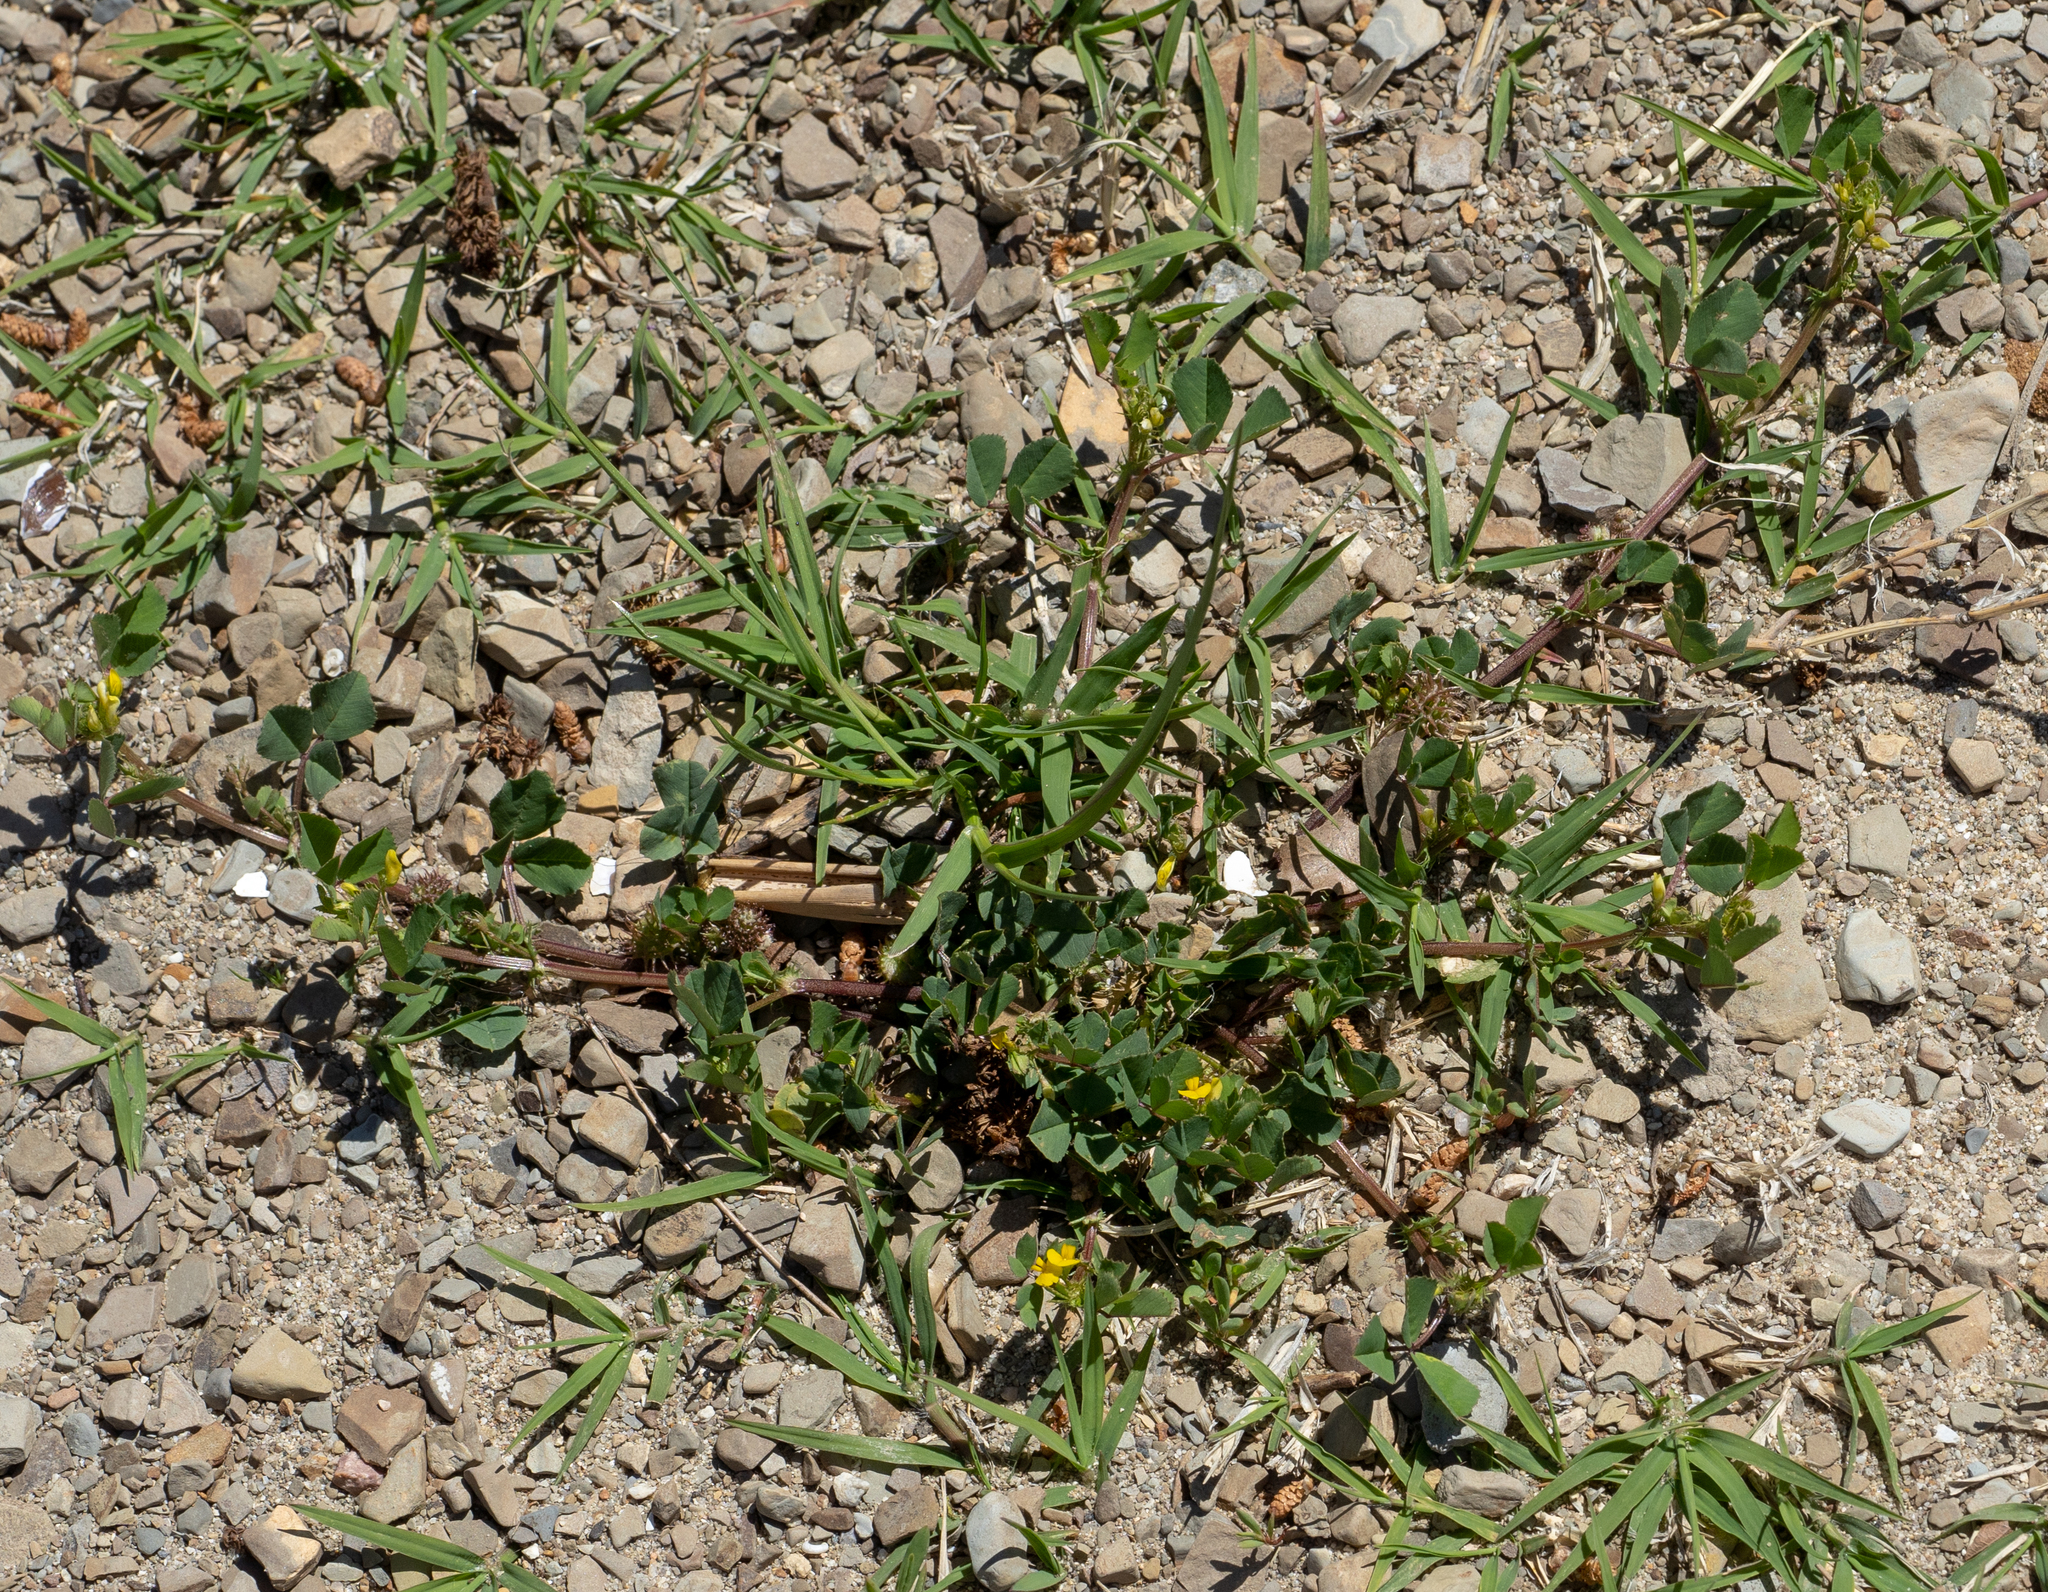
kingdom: Plantae
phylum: Tracheophyta
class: Magnoliopsida
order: Fabales
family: Fabaceae
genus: Medicago
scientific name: Medicago polymorpha
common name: Burclover
